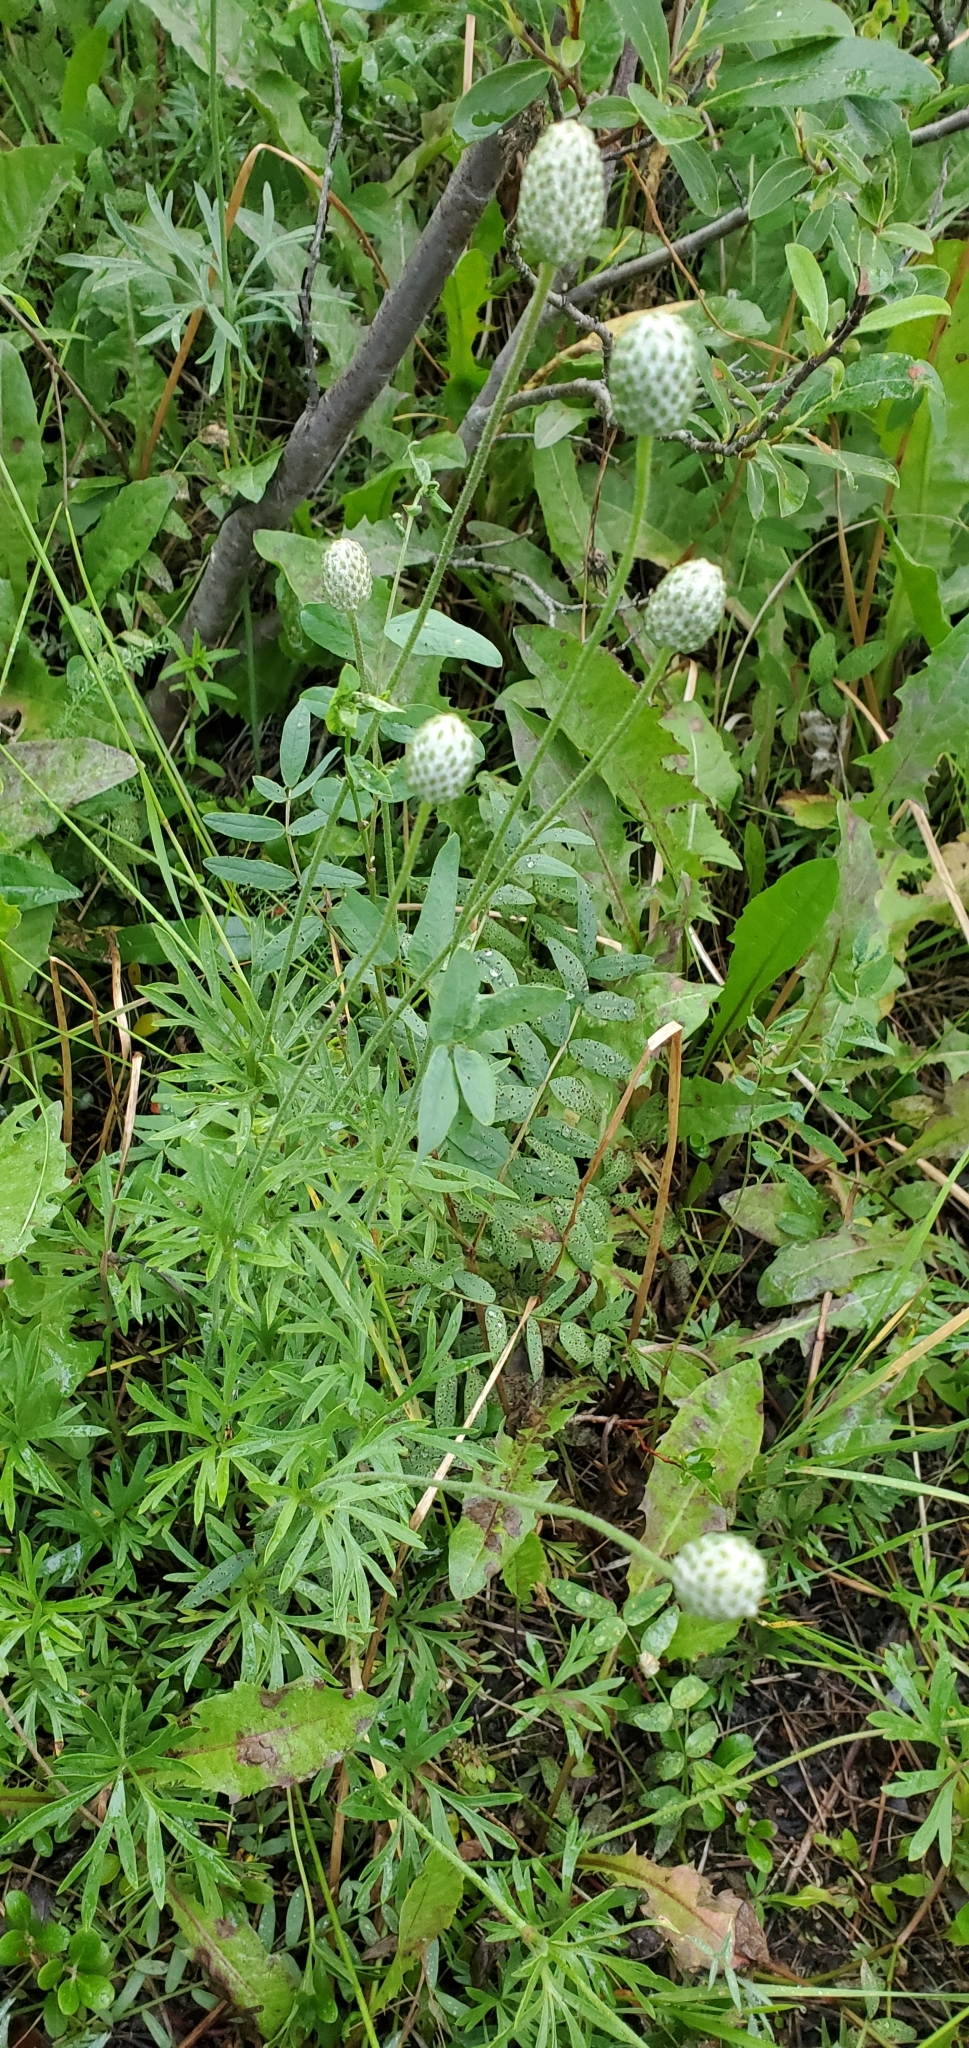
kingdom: Plantae
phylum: Tracheophyta
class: Magnoliopsida
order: Ranunculales
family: Ranunculaceae
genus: Anemone
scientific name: Anemone multifida
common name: Bird's-foot anemone
